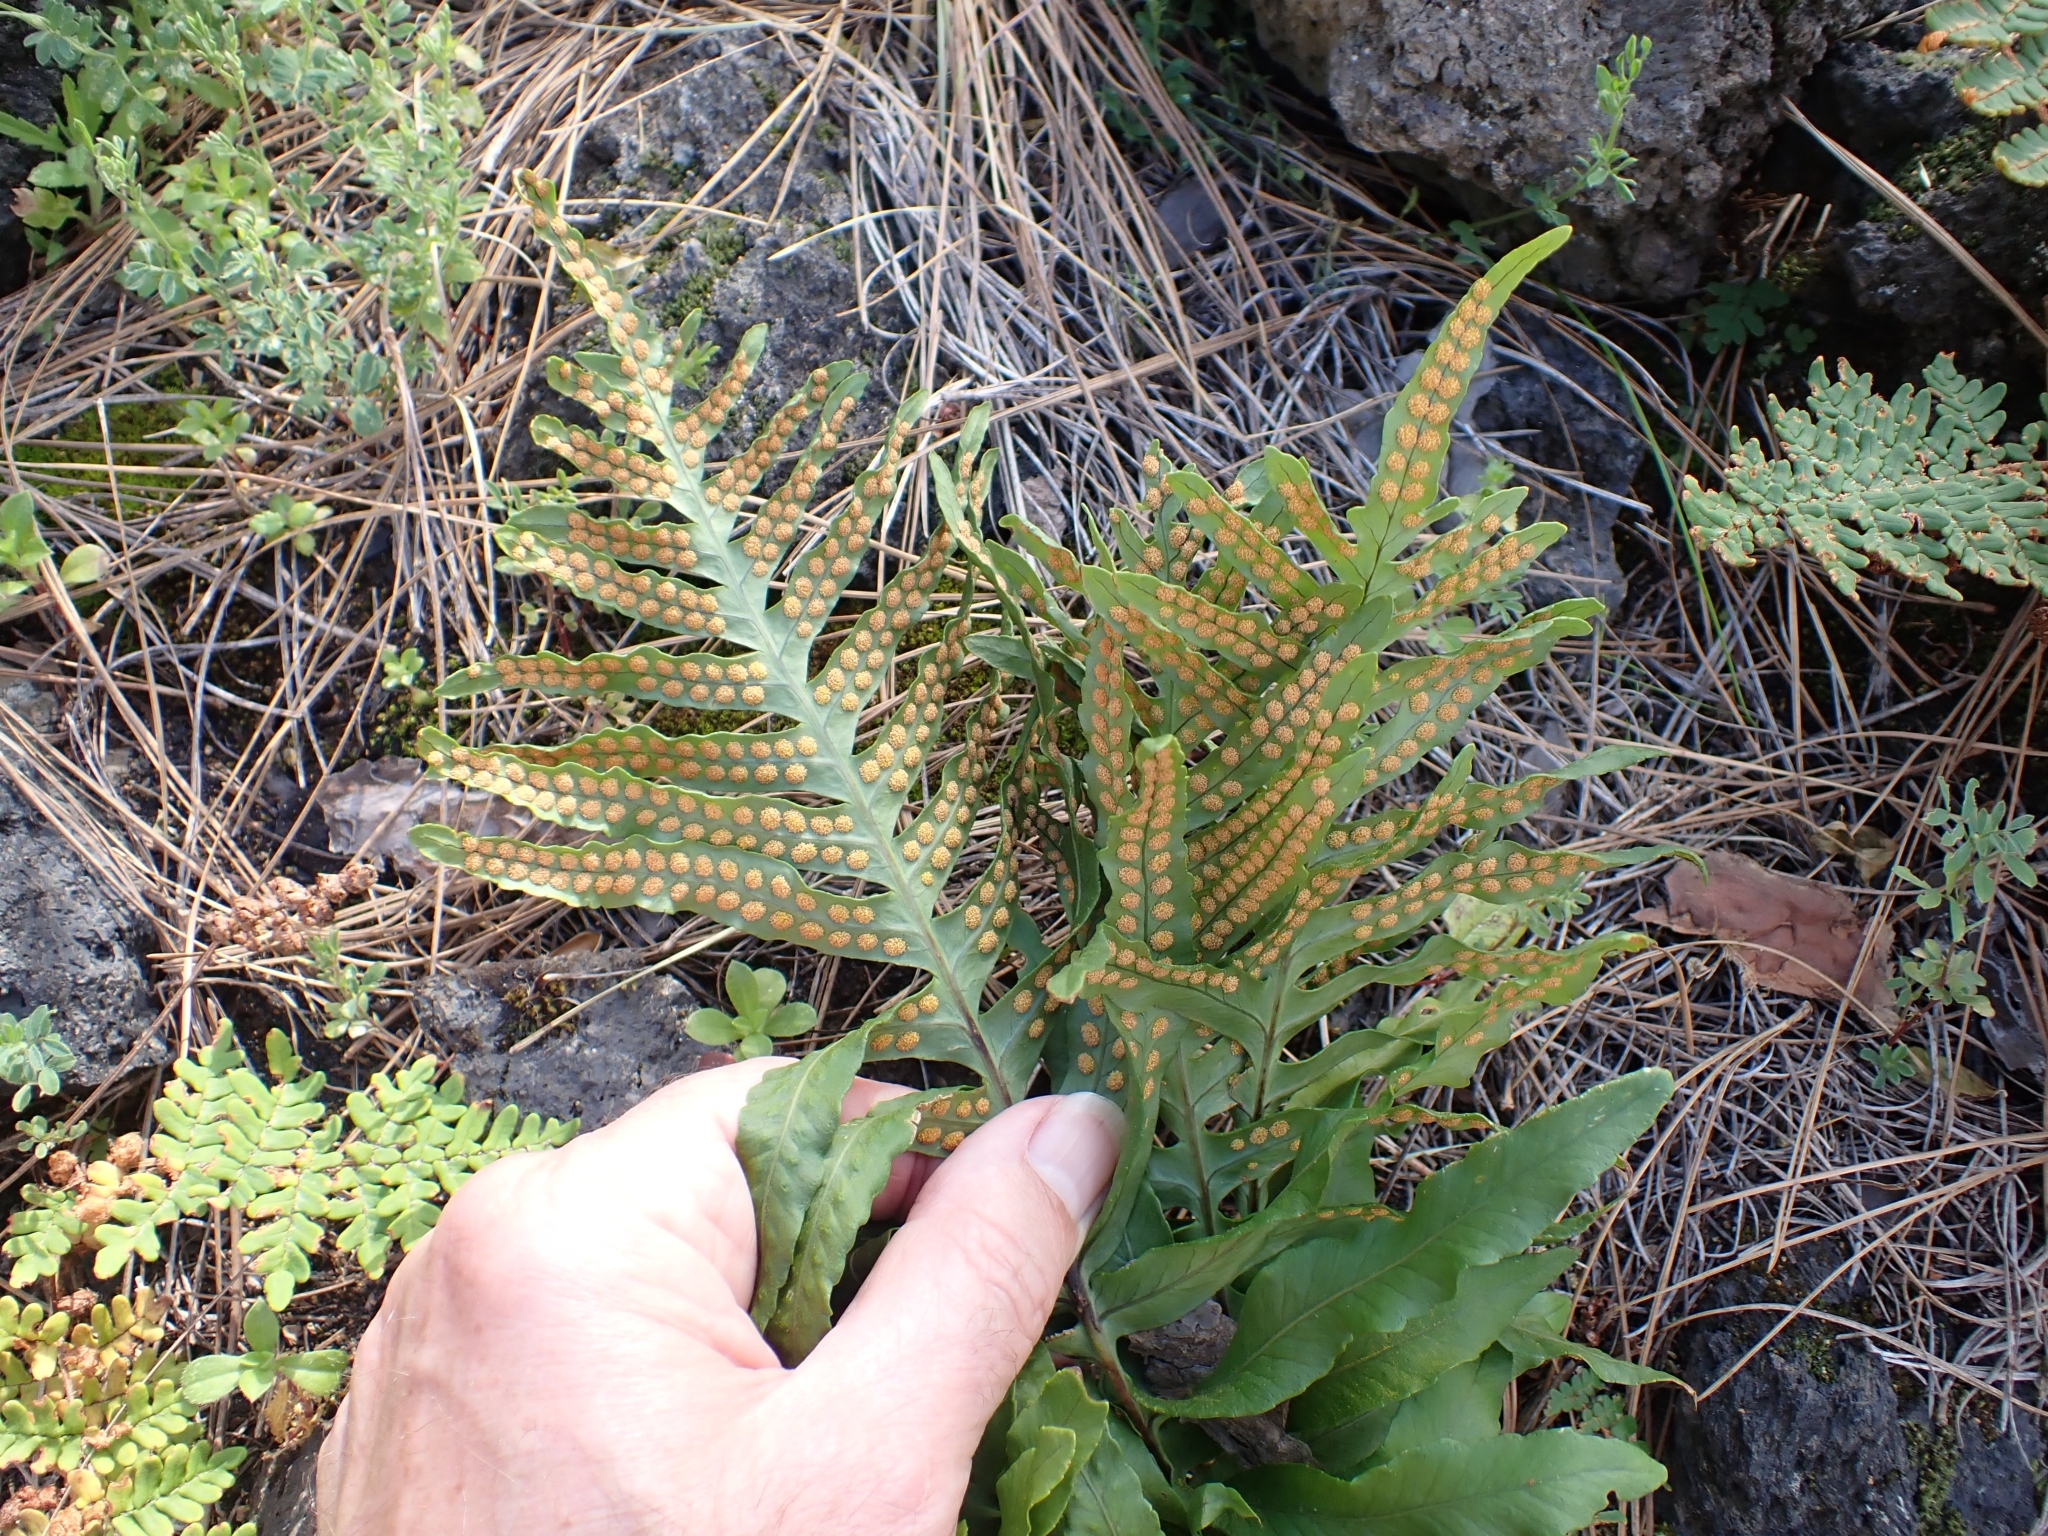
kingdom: Plantae
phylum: Tracheophyta
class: Polypodiopsida
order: Polypodiales
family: Polypodiaceae
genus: Polypodium
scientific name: Polypodium macaronesicum
